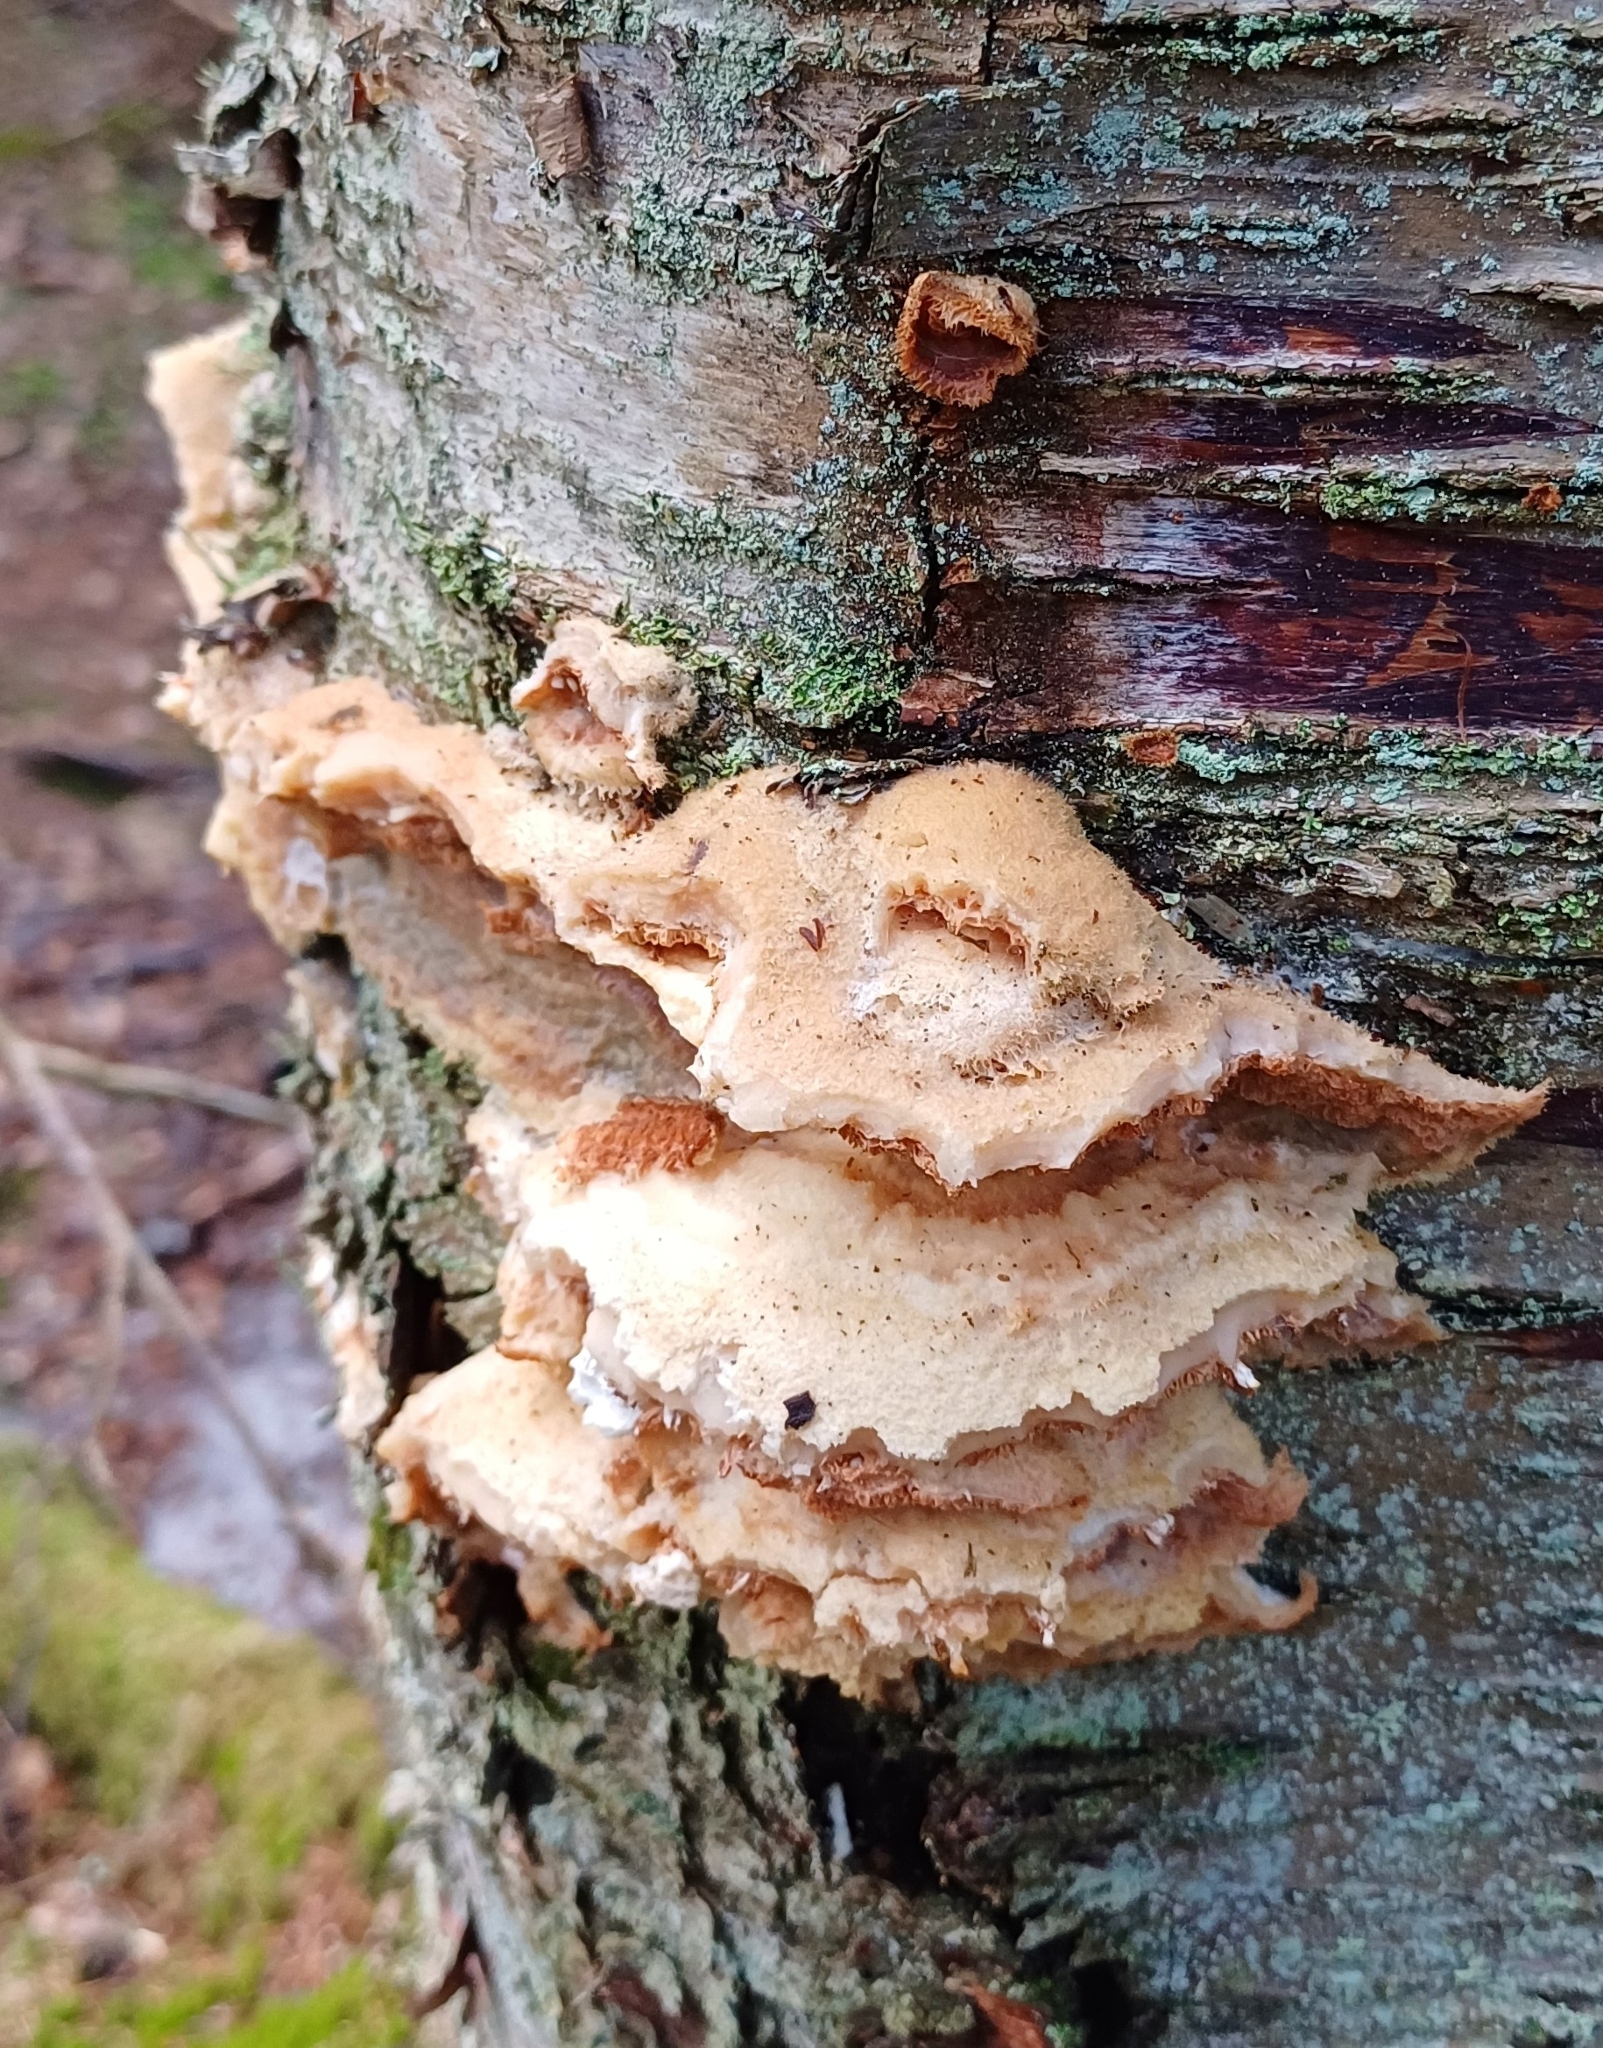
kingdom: Fungi
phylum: Basidiomycota
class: Agaricomycetes
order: Polyporales
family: Meruliaceae
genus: Phlebia
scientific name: Phlebia tremellosa
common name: Jelly rot
